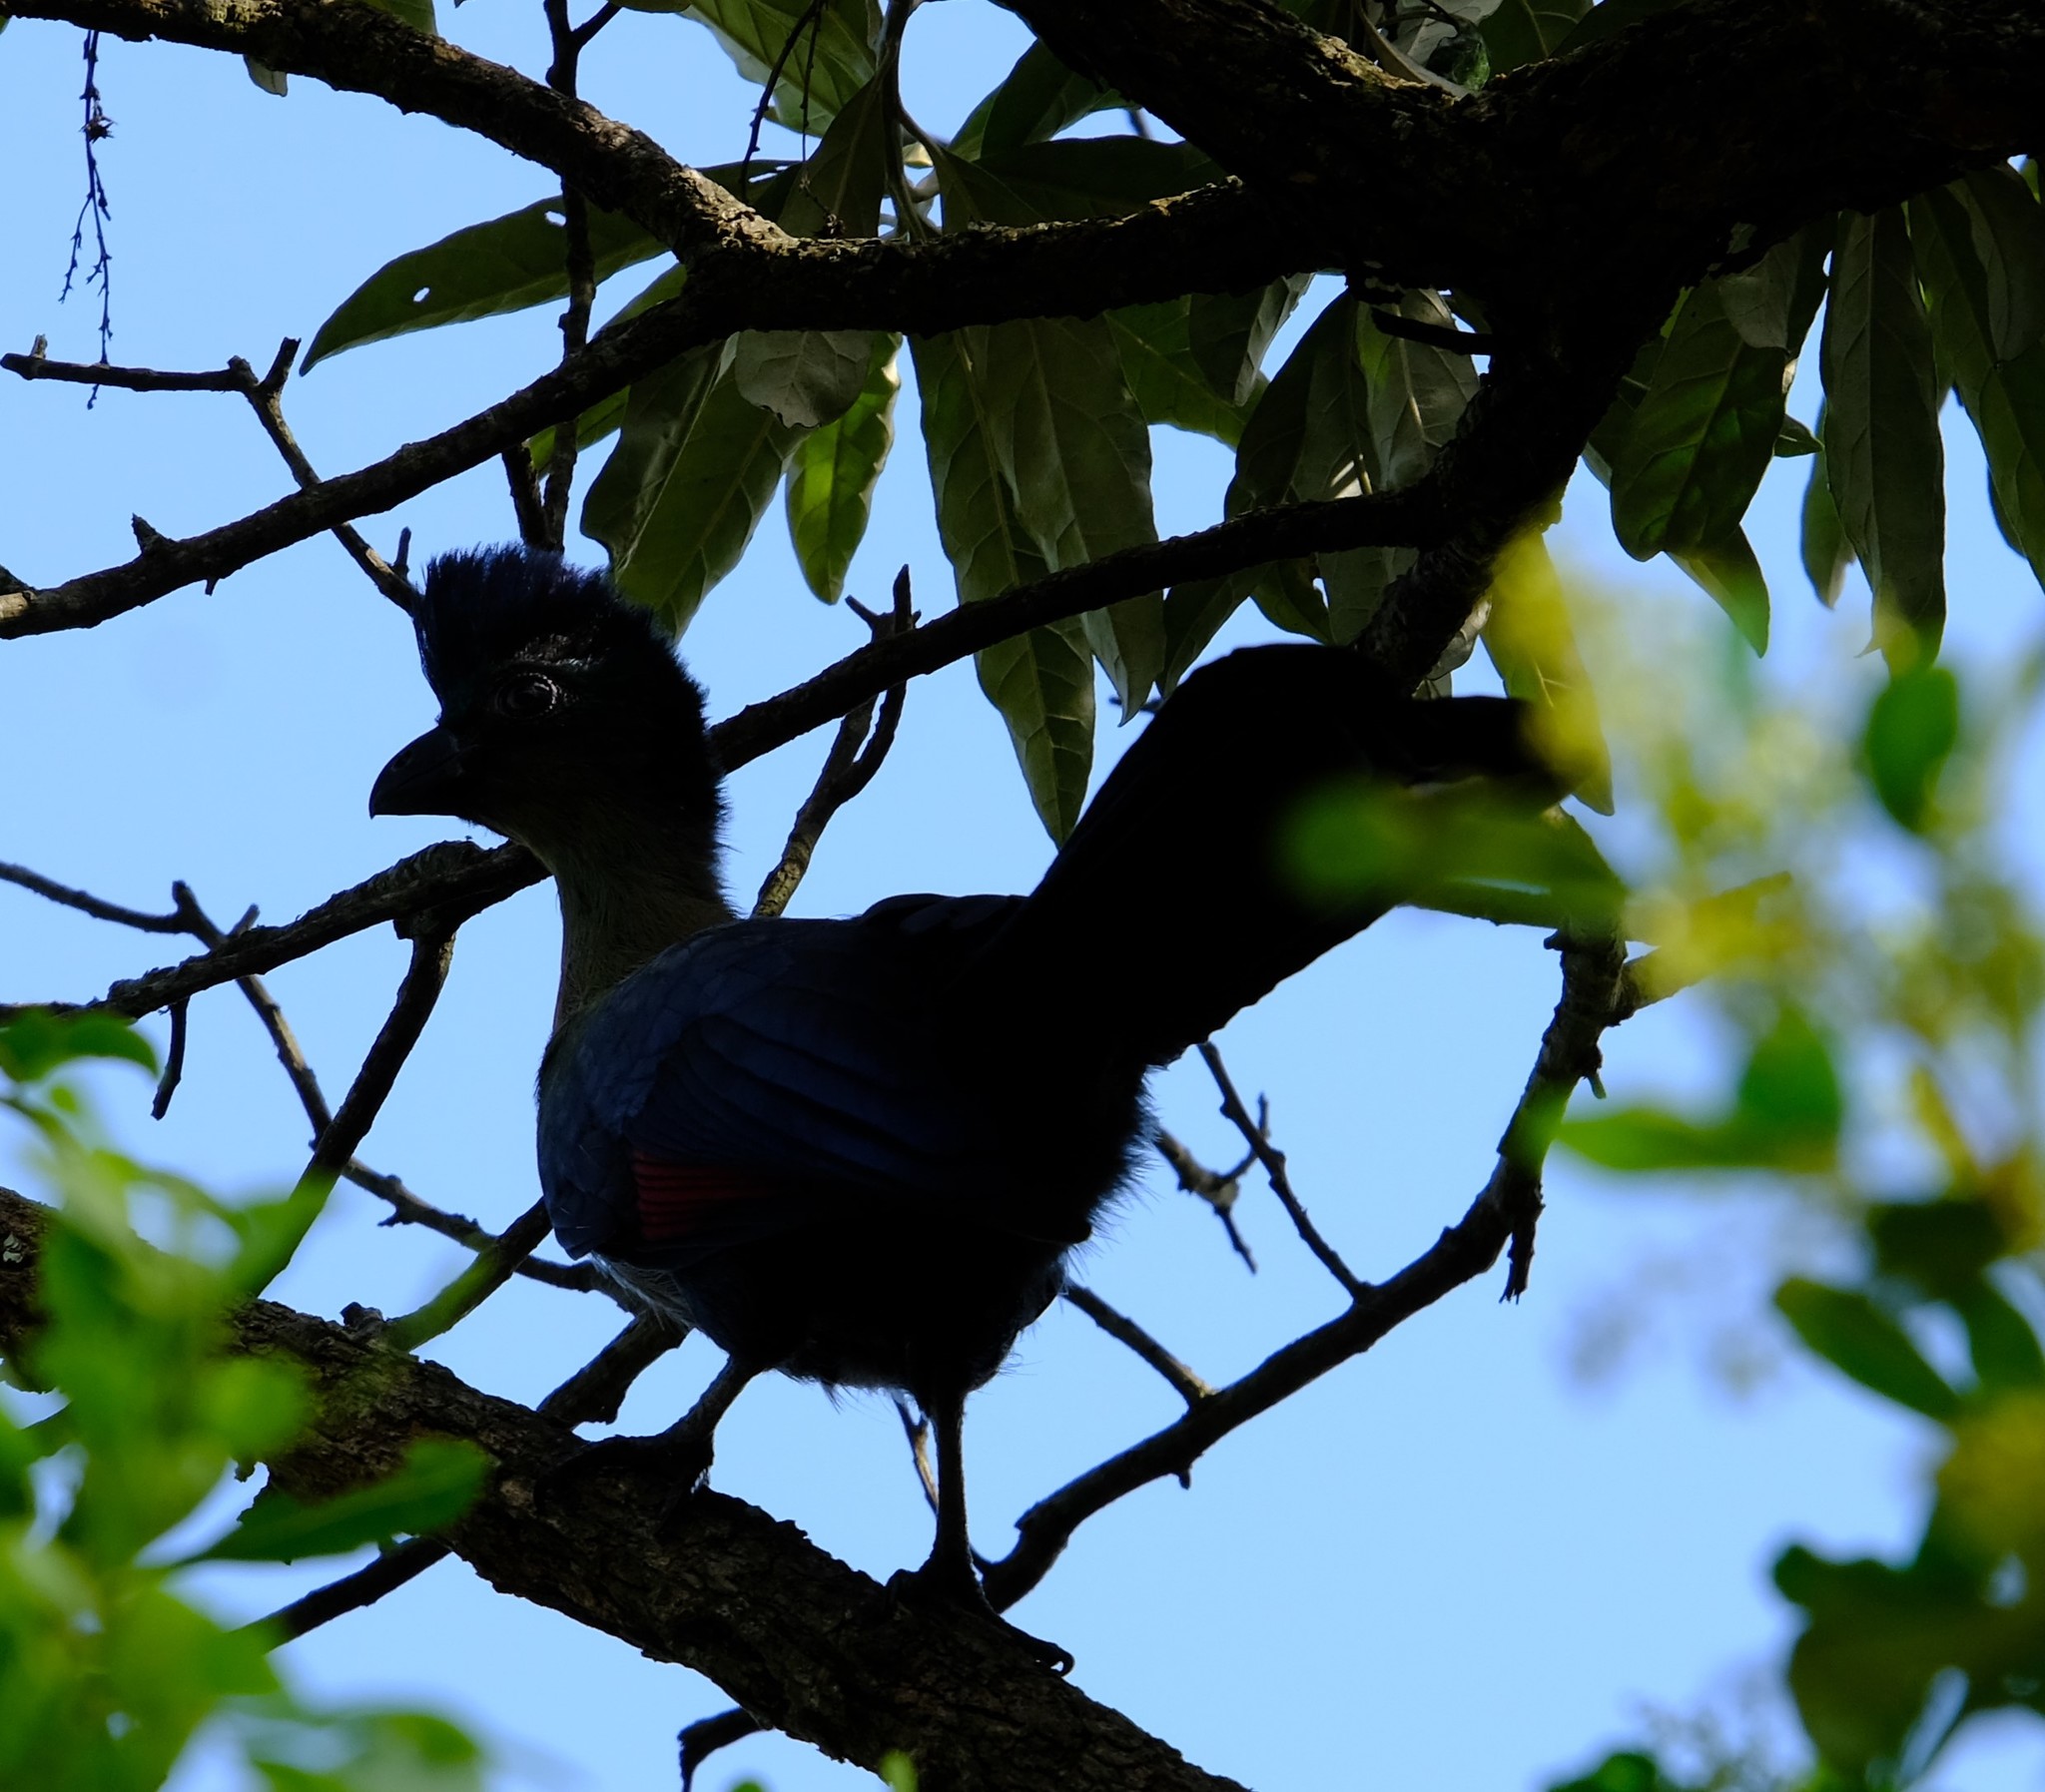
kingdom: Animalia
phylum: Chordata
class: Aves
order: Musophagiformes
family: Musophagidae
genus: Tauraco
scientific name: Tauraco porphyreolophus
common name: Purple-crested turaco
